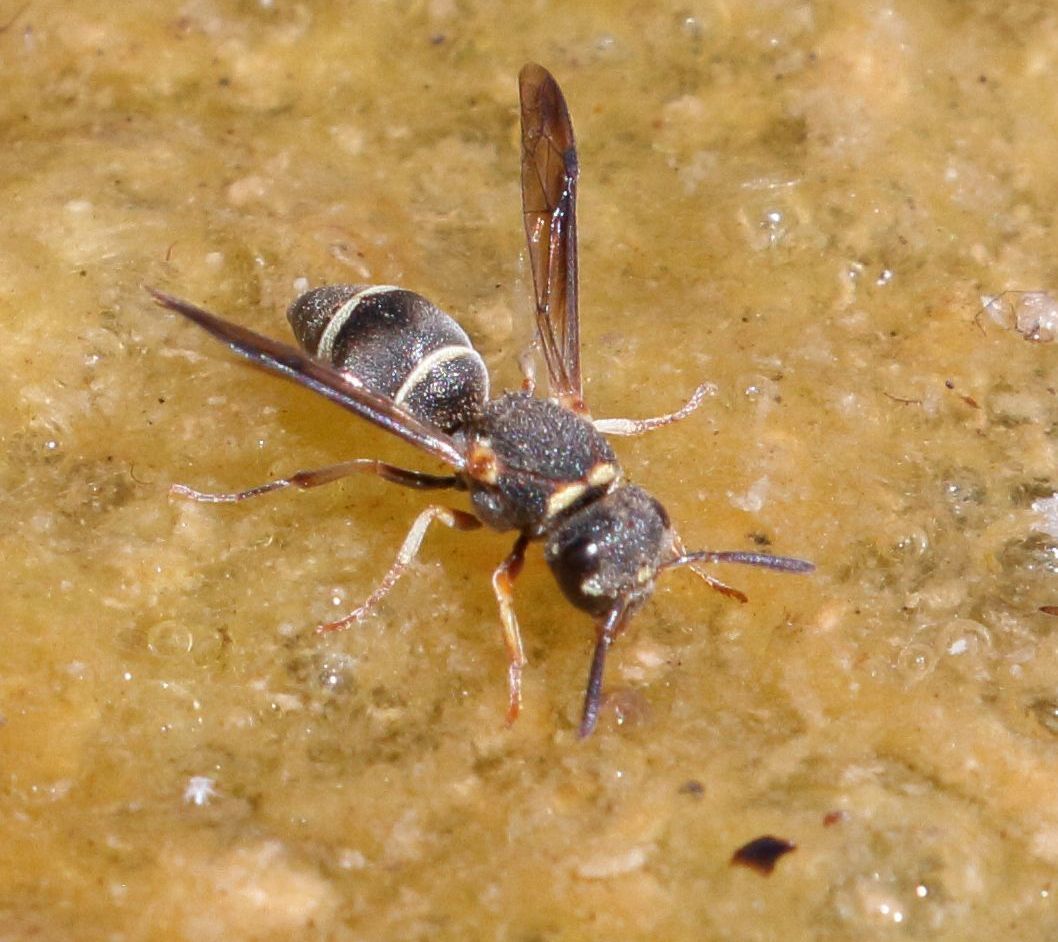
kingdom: Animalia
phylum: Arthropoda
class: Insecta
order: Hymenoptera
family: Eumenidae
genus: Antepipona
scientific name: Antepipona
